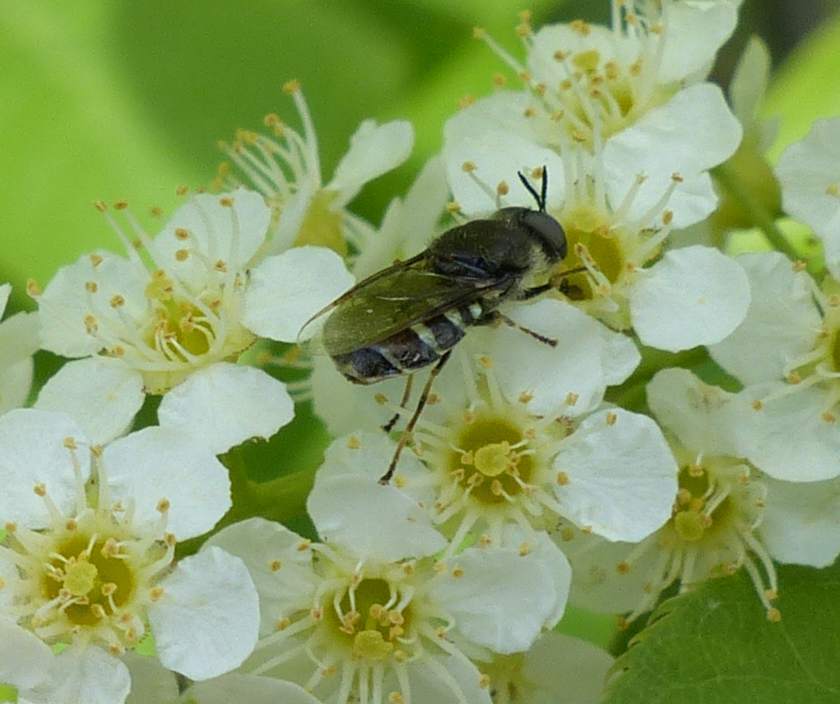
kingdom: Animalia
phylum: Arthropoda
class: Insecta
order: Diptera
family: Stratiomyidae
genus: Odontomyia
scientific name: Odontomyia interrupta
